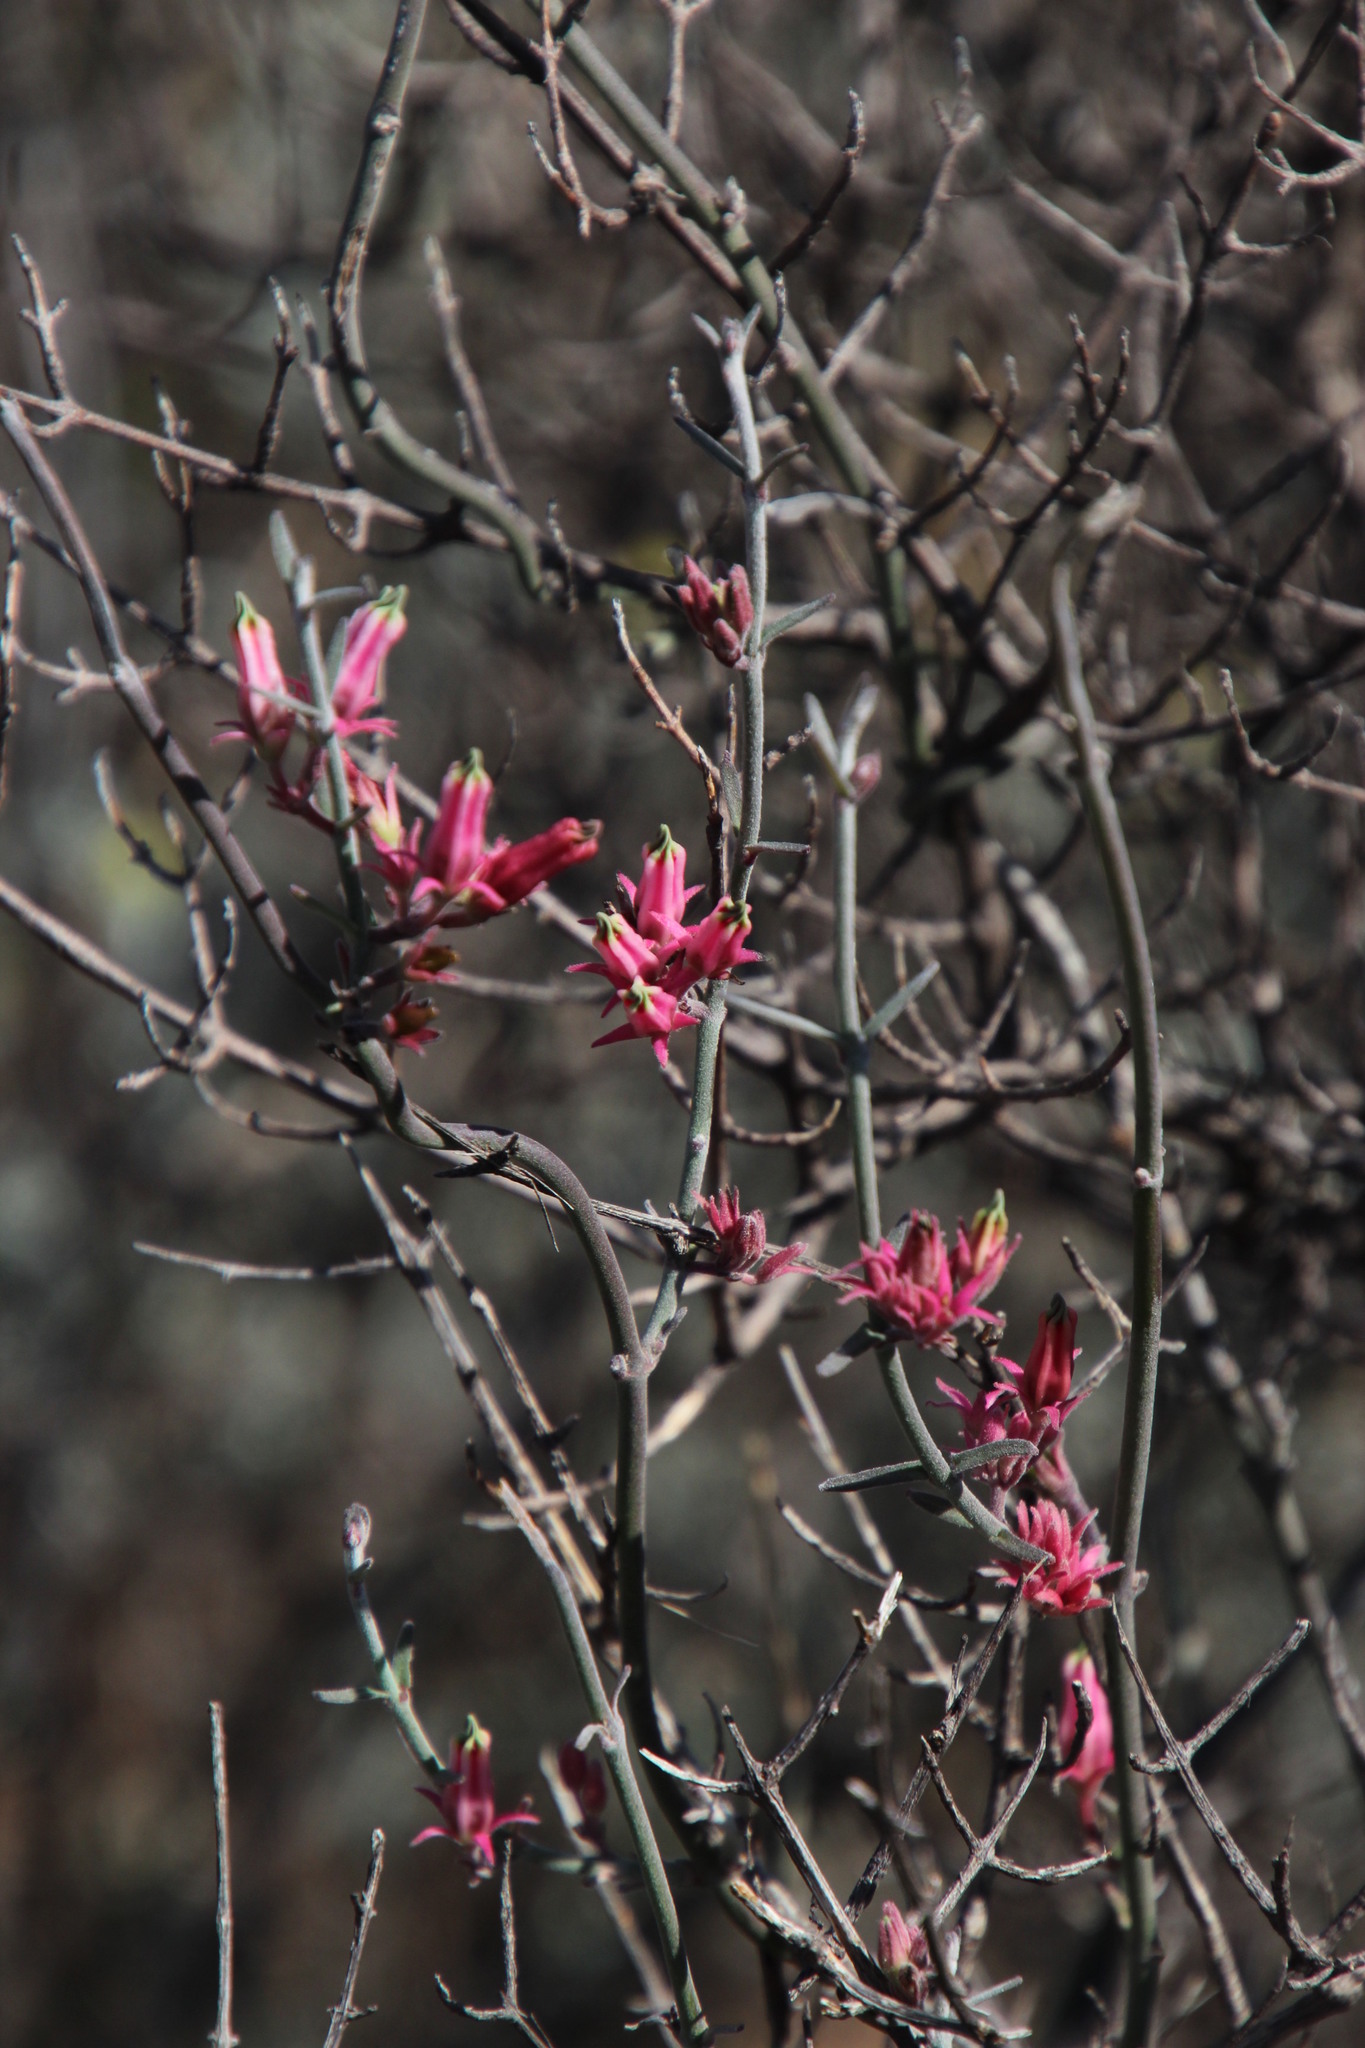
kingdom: Plantae
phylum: Tracheophyta
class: Magnoliopsida
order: Gentianales
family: Apocynaceae
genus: Microloma
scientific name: Microloma sagittatum
